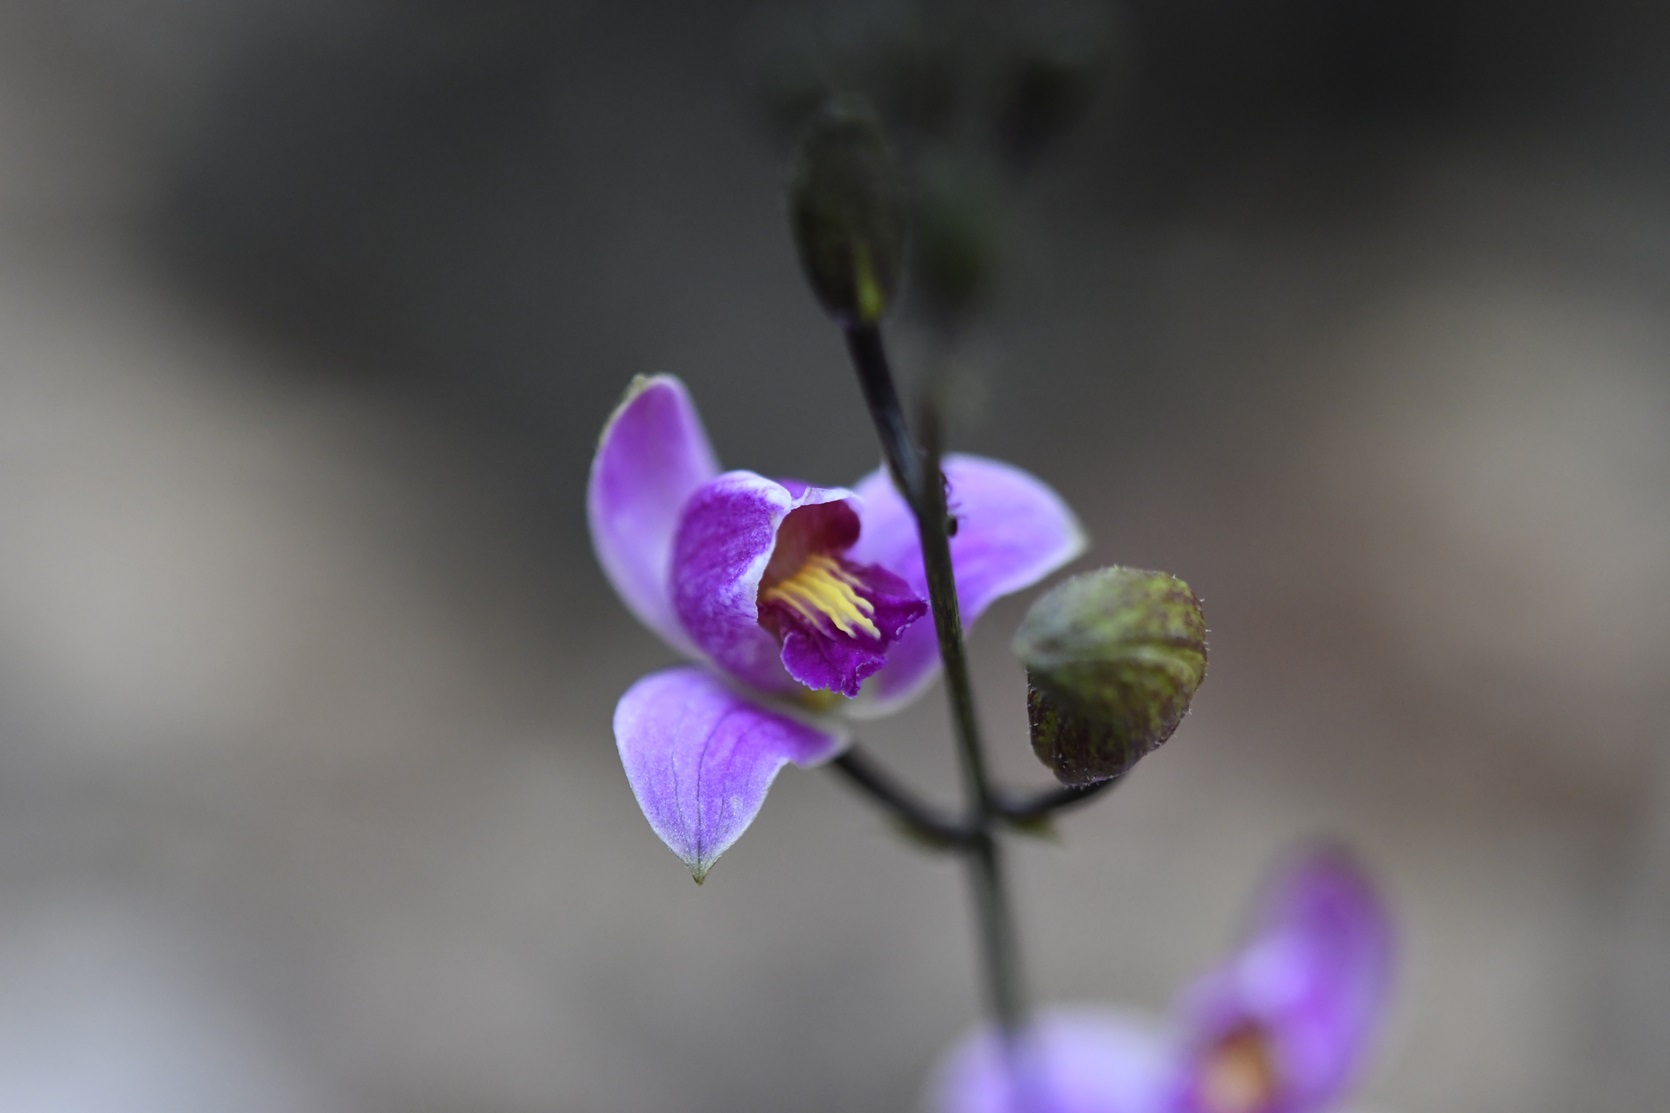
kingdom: Plantae
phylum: Tracheophyta
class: Liliopsida
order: Asparagales
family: Orchidaceae
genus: Bletia
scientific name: Bletia purpurea
